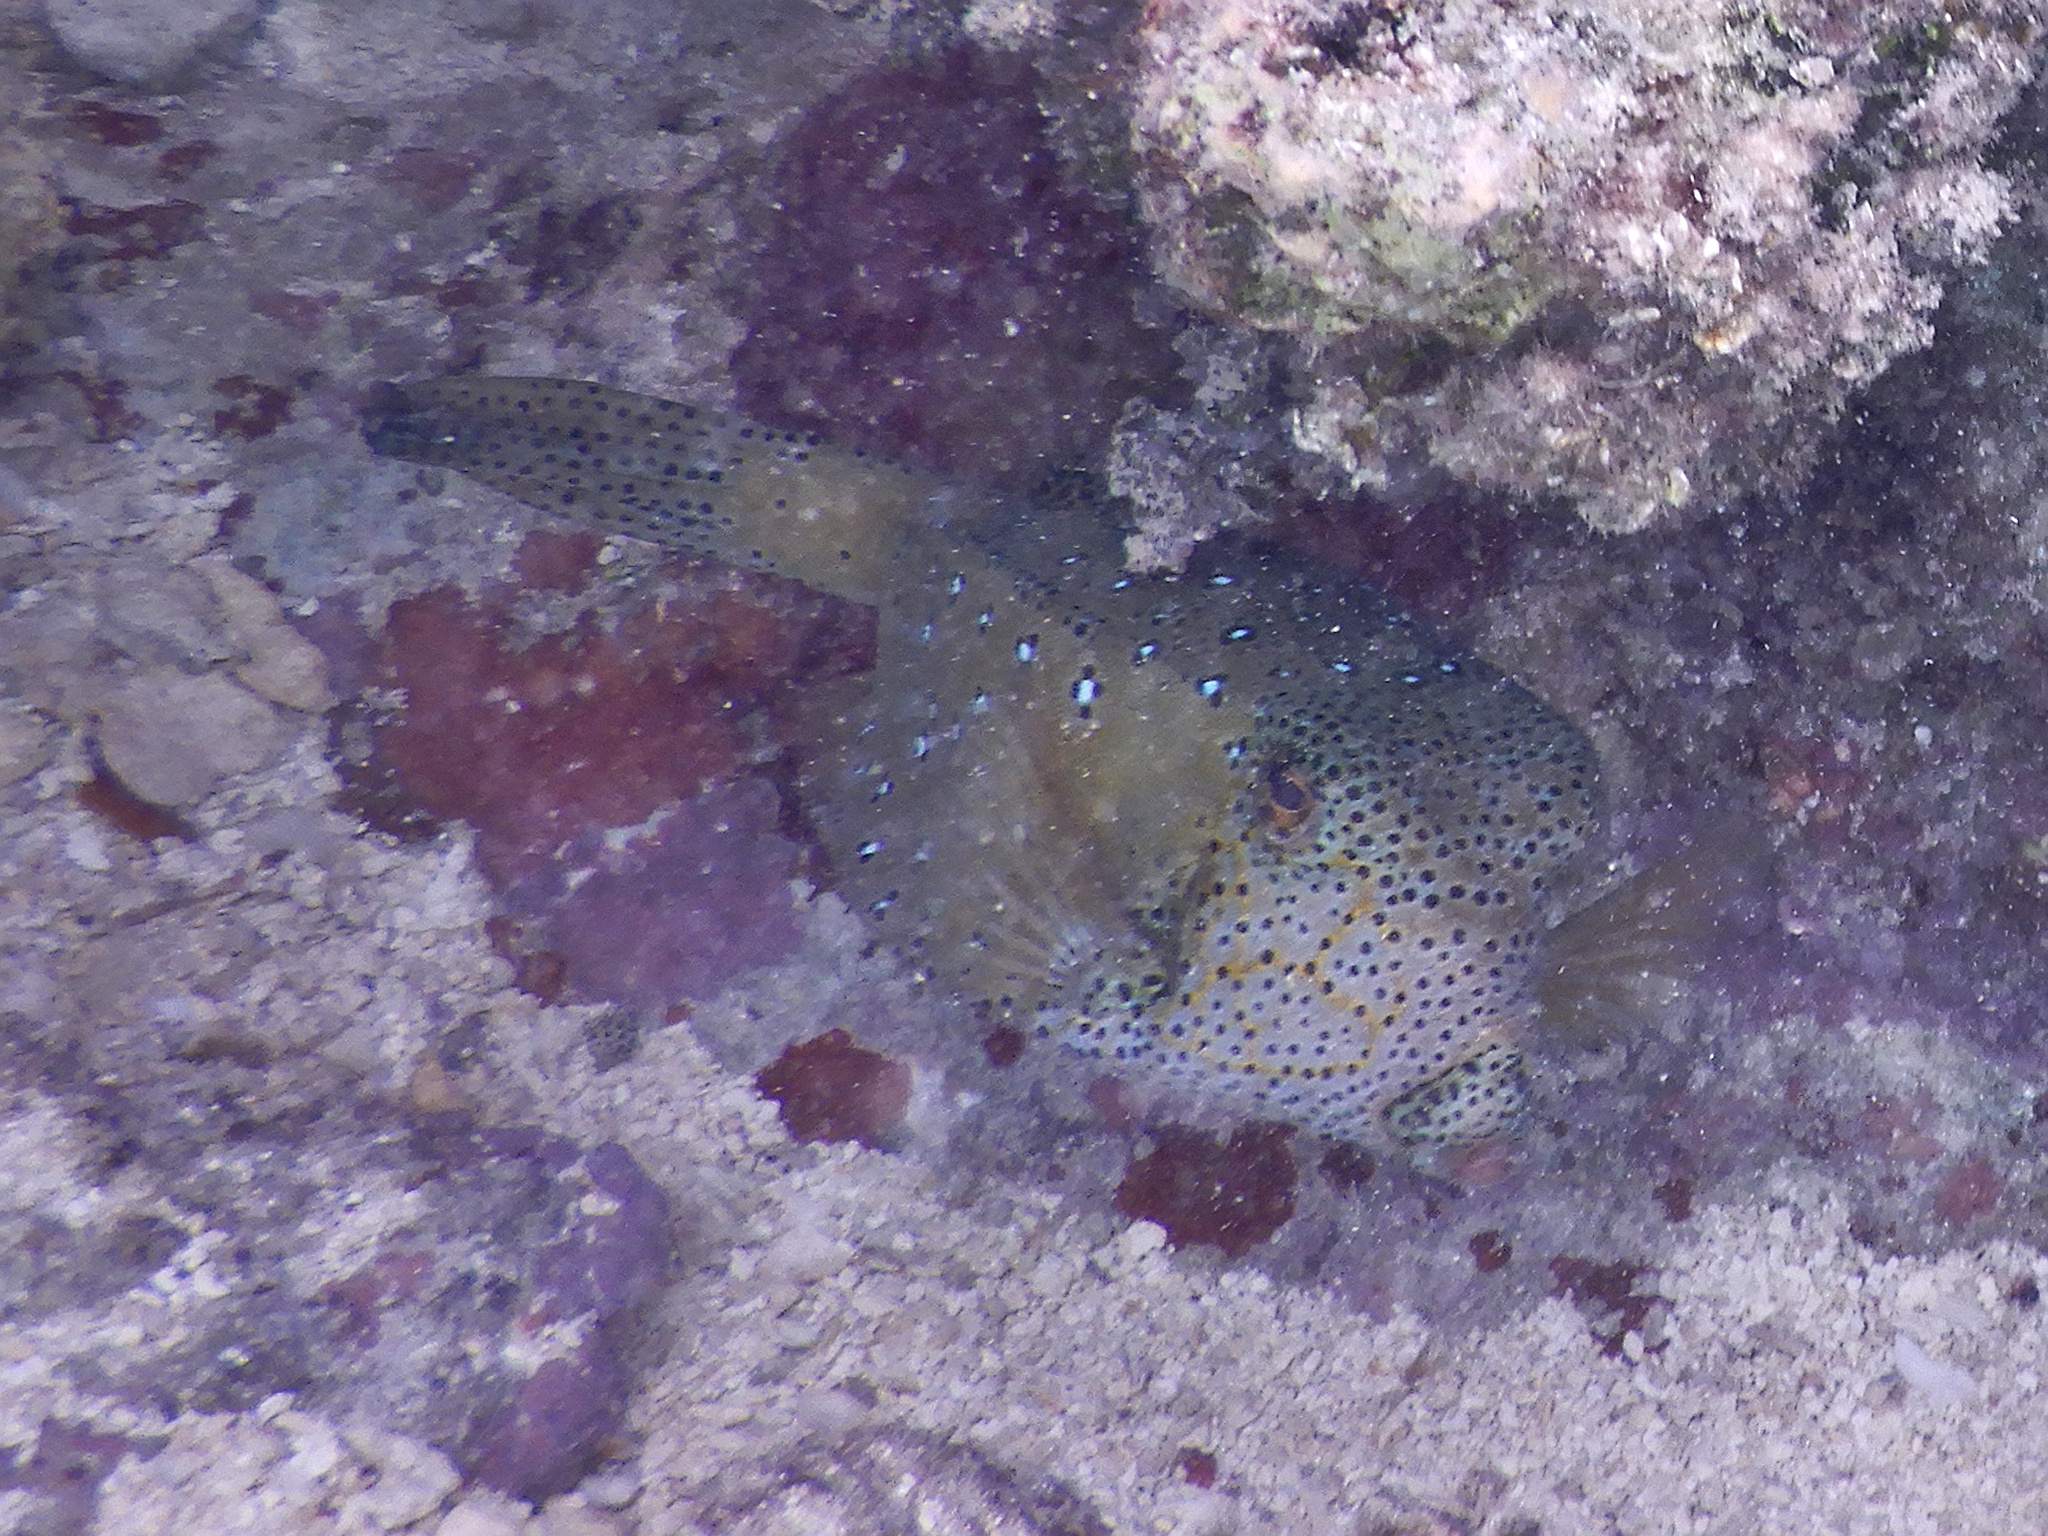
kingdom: Animalia
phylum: Chordata
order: Tetraodontiformes
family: Ostraciidae
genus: Ostracion
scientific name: Ostracion cubicus
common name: Cube trunkfish
